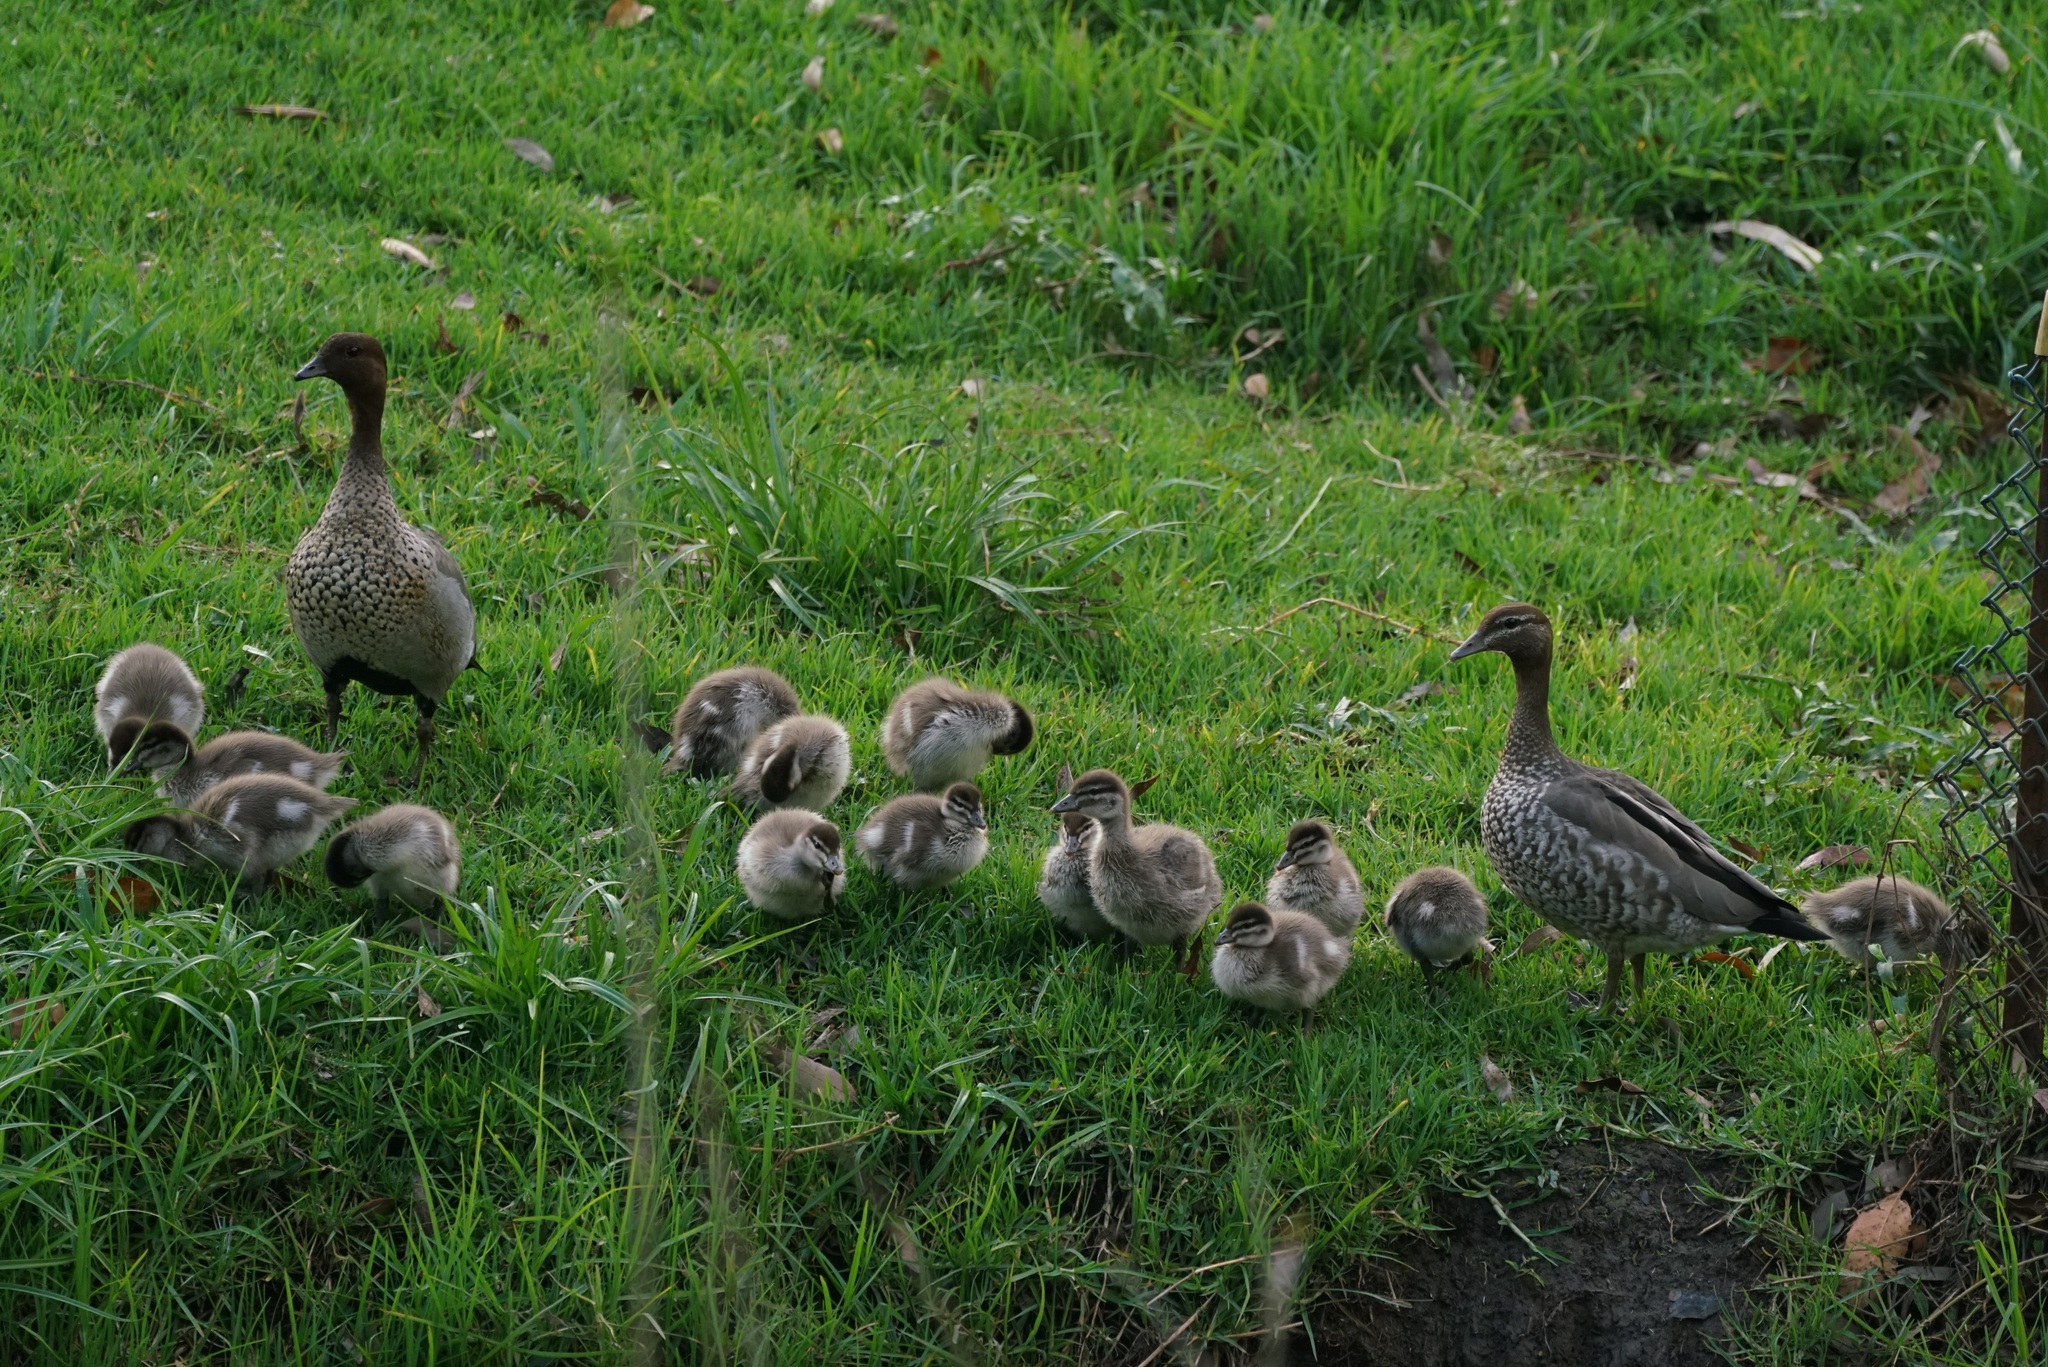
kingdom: Animalia
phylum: Chordata
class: Aves
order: Anseriformes
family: Anatidae
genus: Chenonetta
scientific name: Chenonetta jubata
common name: Maned duck
